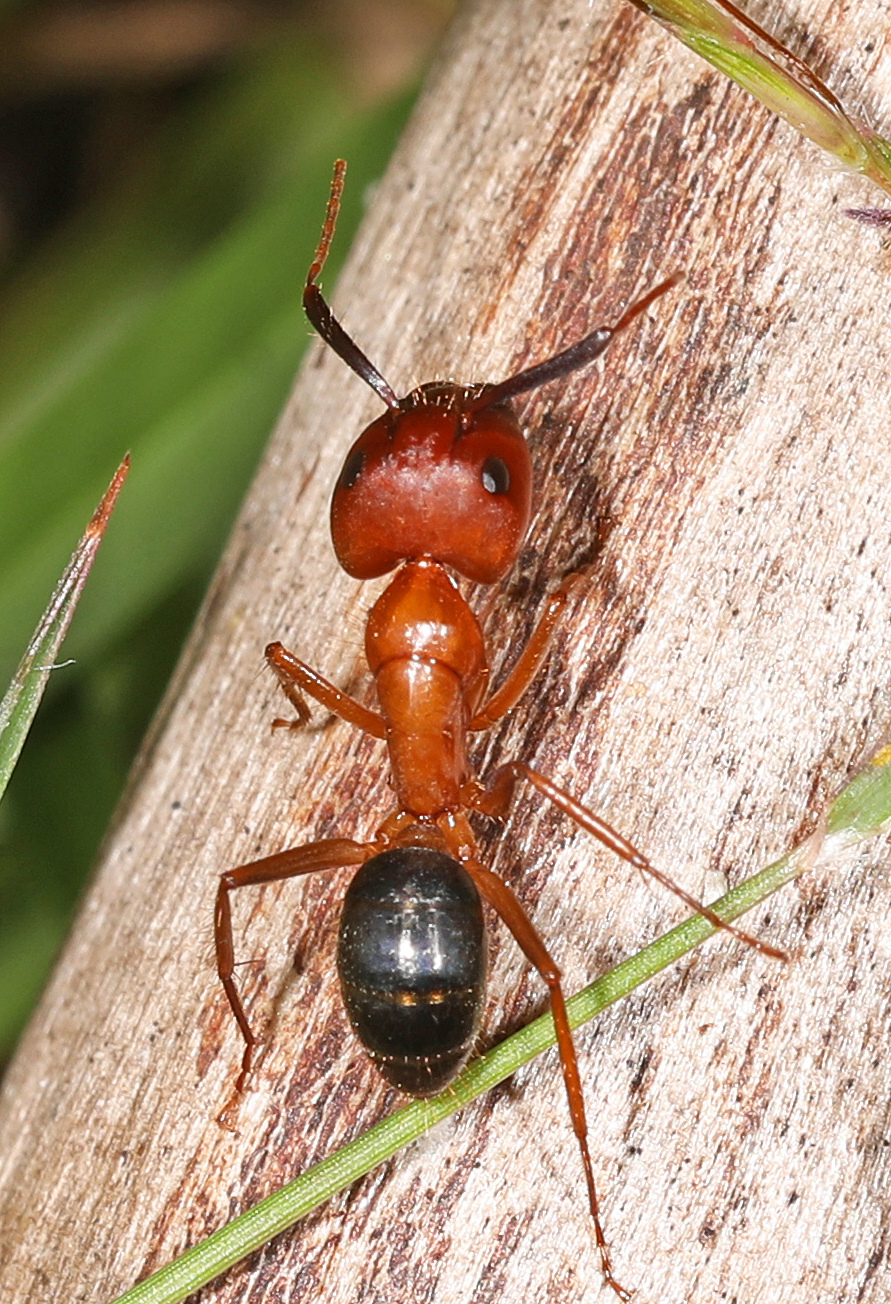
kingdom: Animalia
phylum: Arthropoda
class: Insecta
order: Hymenoptera
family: Formicidae
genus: Camponotus
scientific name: Camponotus floridanus
